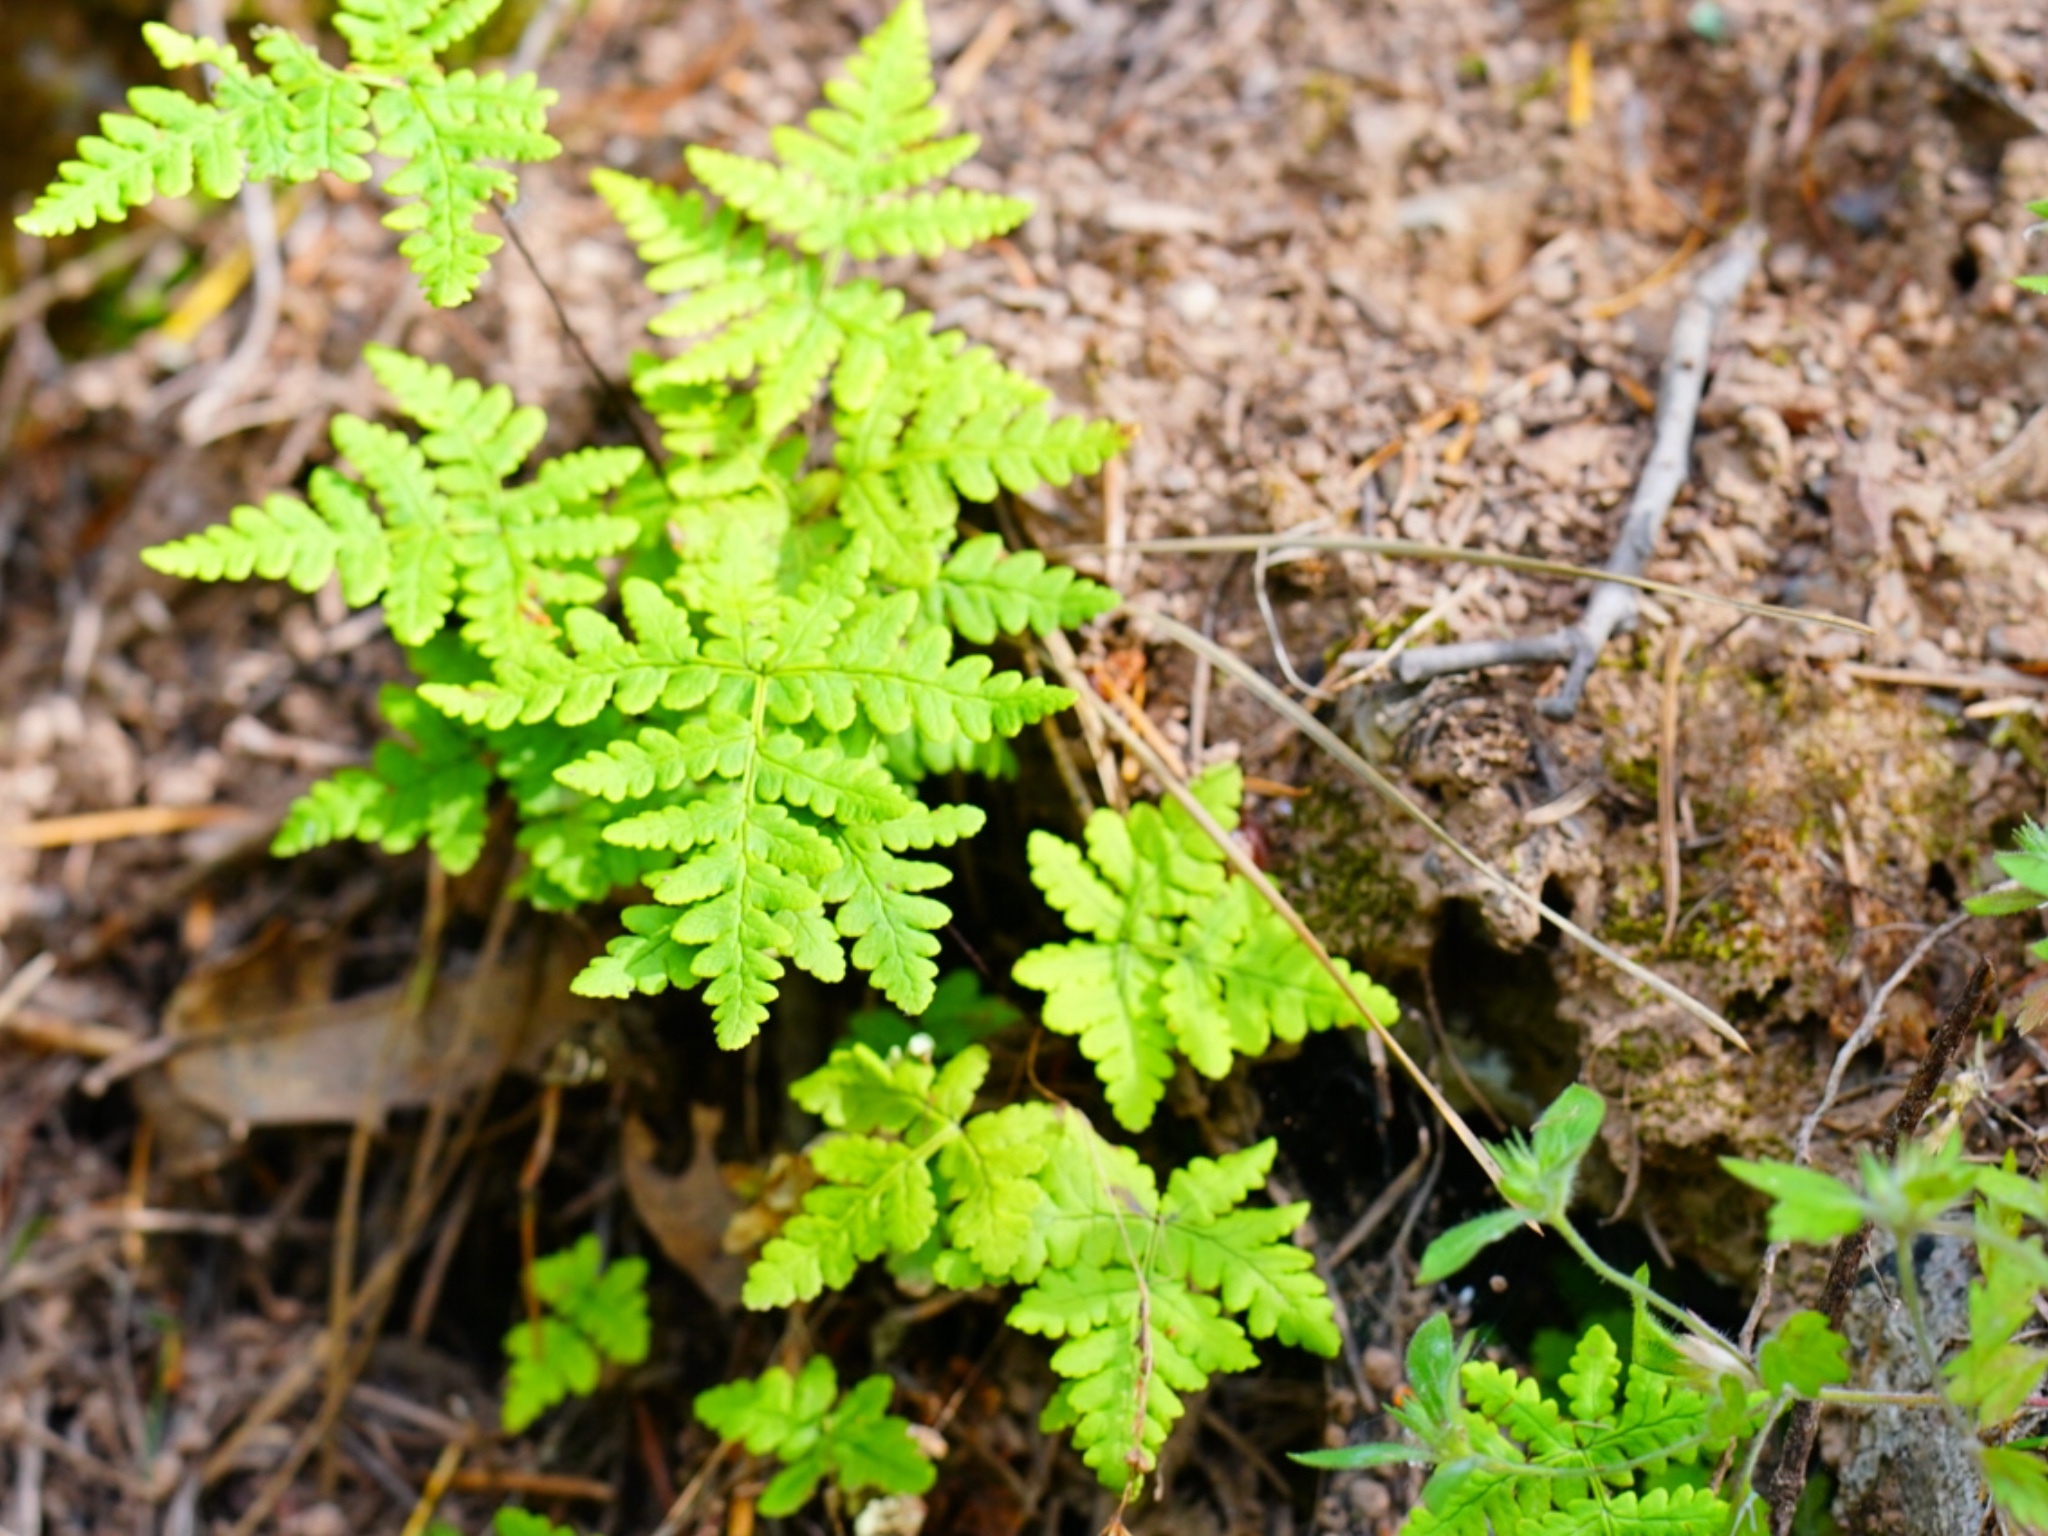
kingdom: Plantae
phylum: Tracheophyta
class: Polypodiopsida
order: Polypodiales
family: Pteridaceae
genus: Pentagramma
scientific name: Pentagramma triangularis
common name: Gold fern
